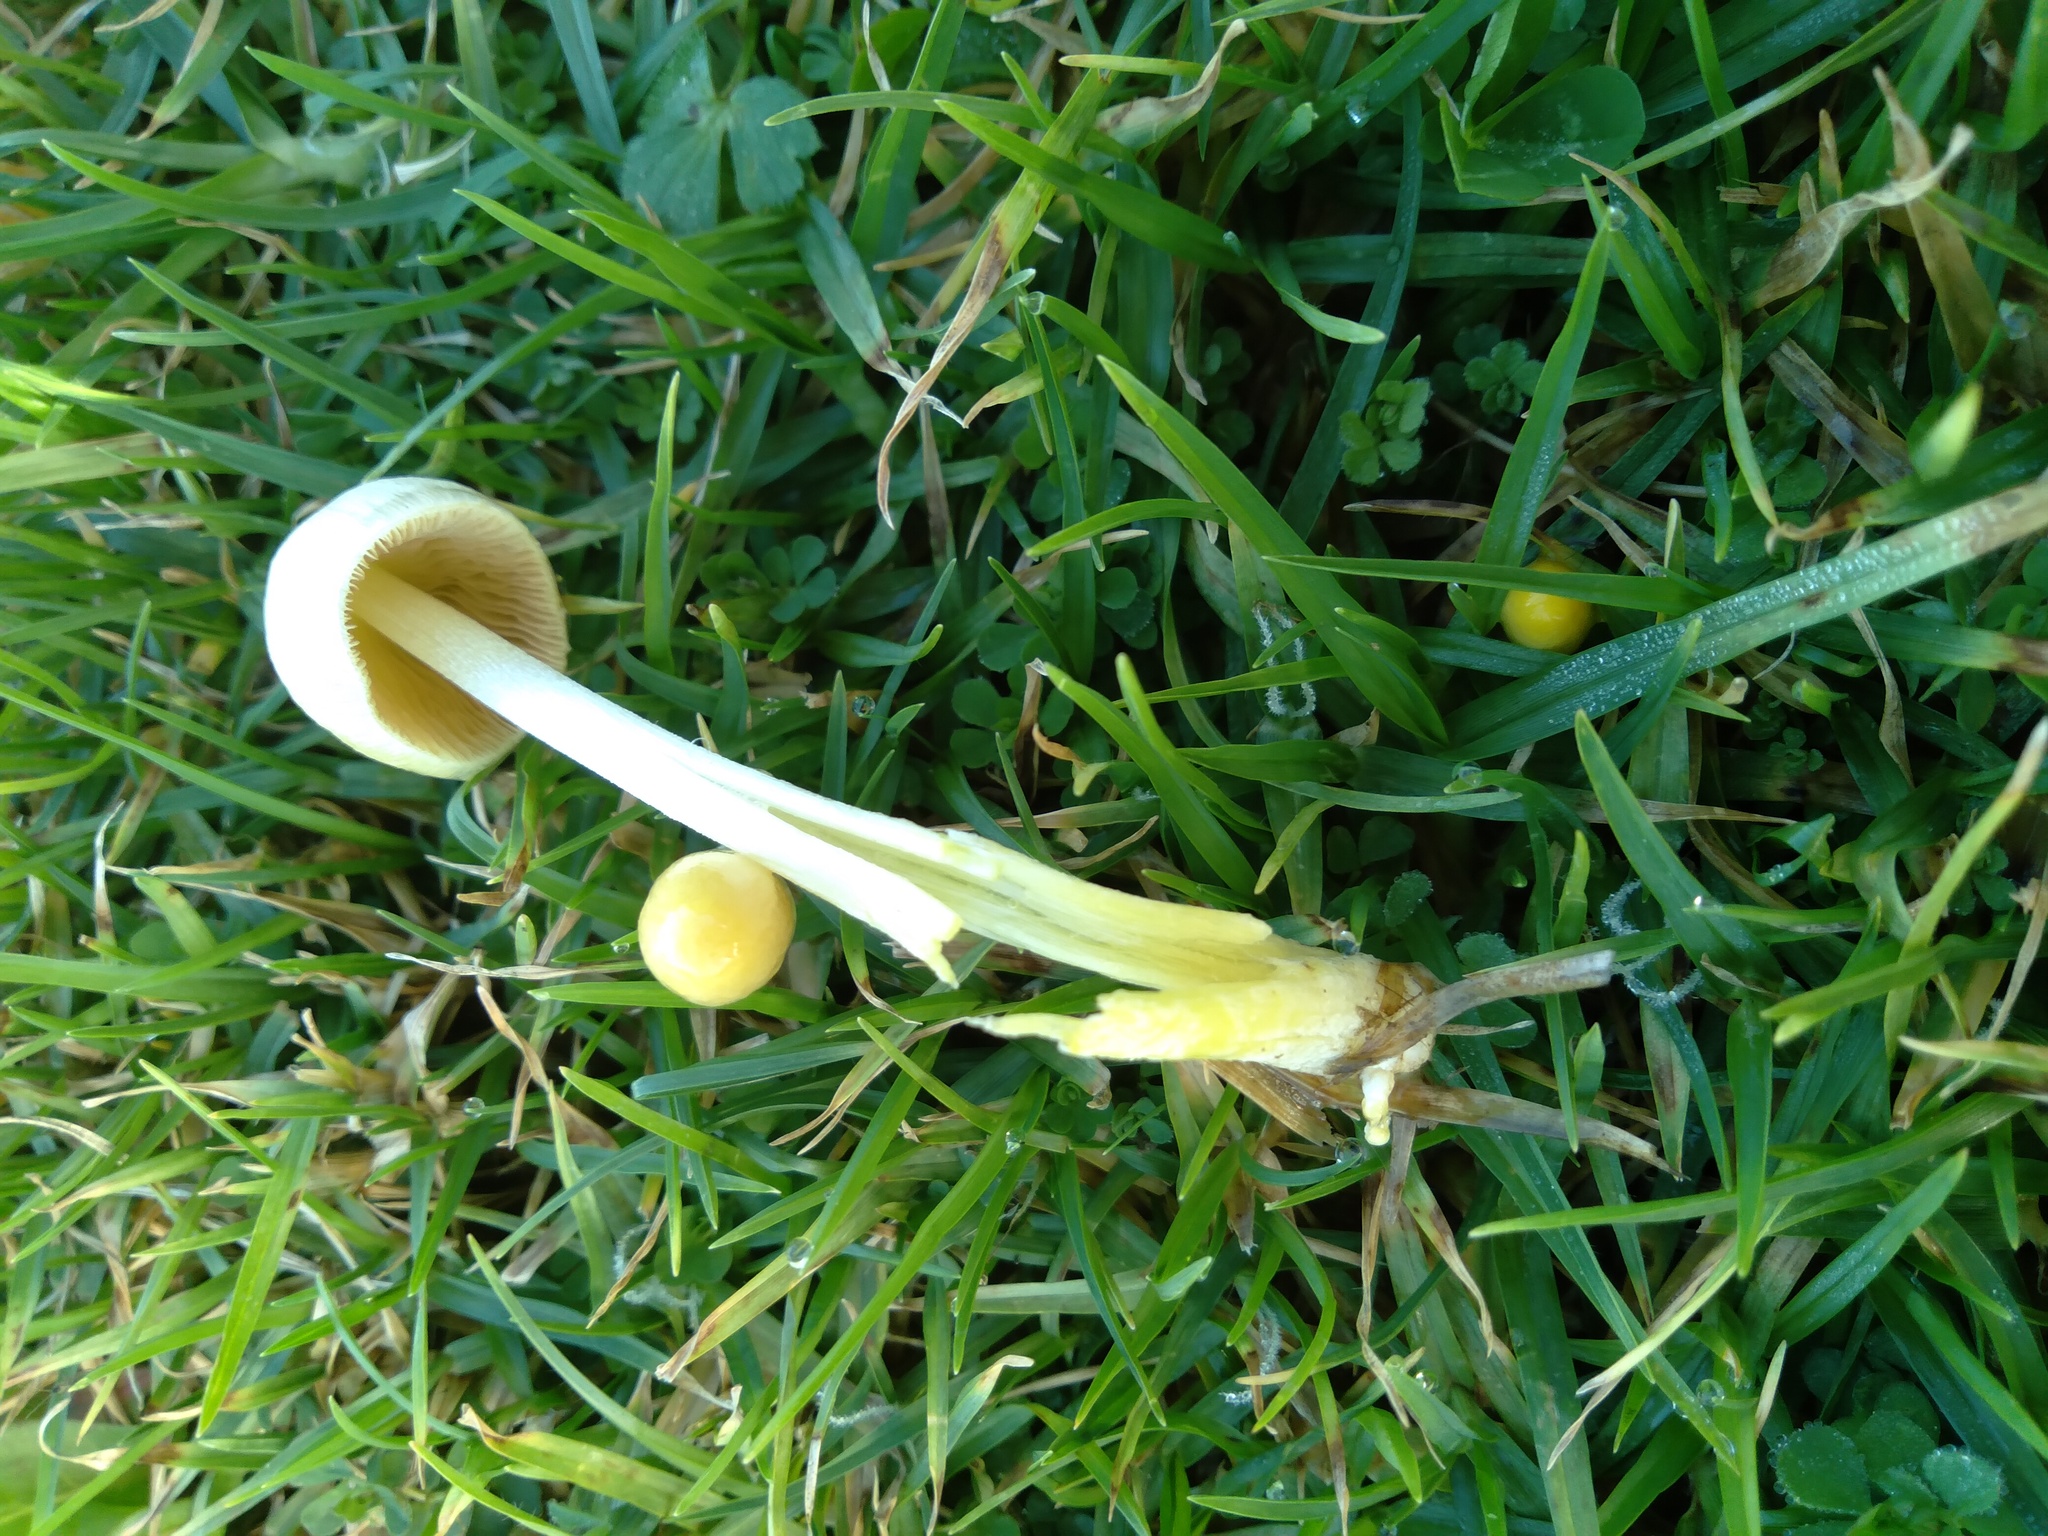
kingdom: Fungi
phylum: Basidiomycota
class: Agaricomycetes
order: Agaricales
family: Bolbitiaceae
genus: Bolbitius
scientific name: Bolbitius titubans
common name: Yellow fieldcap
